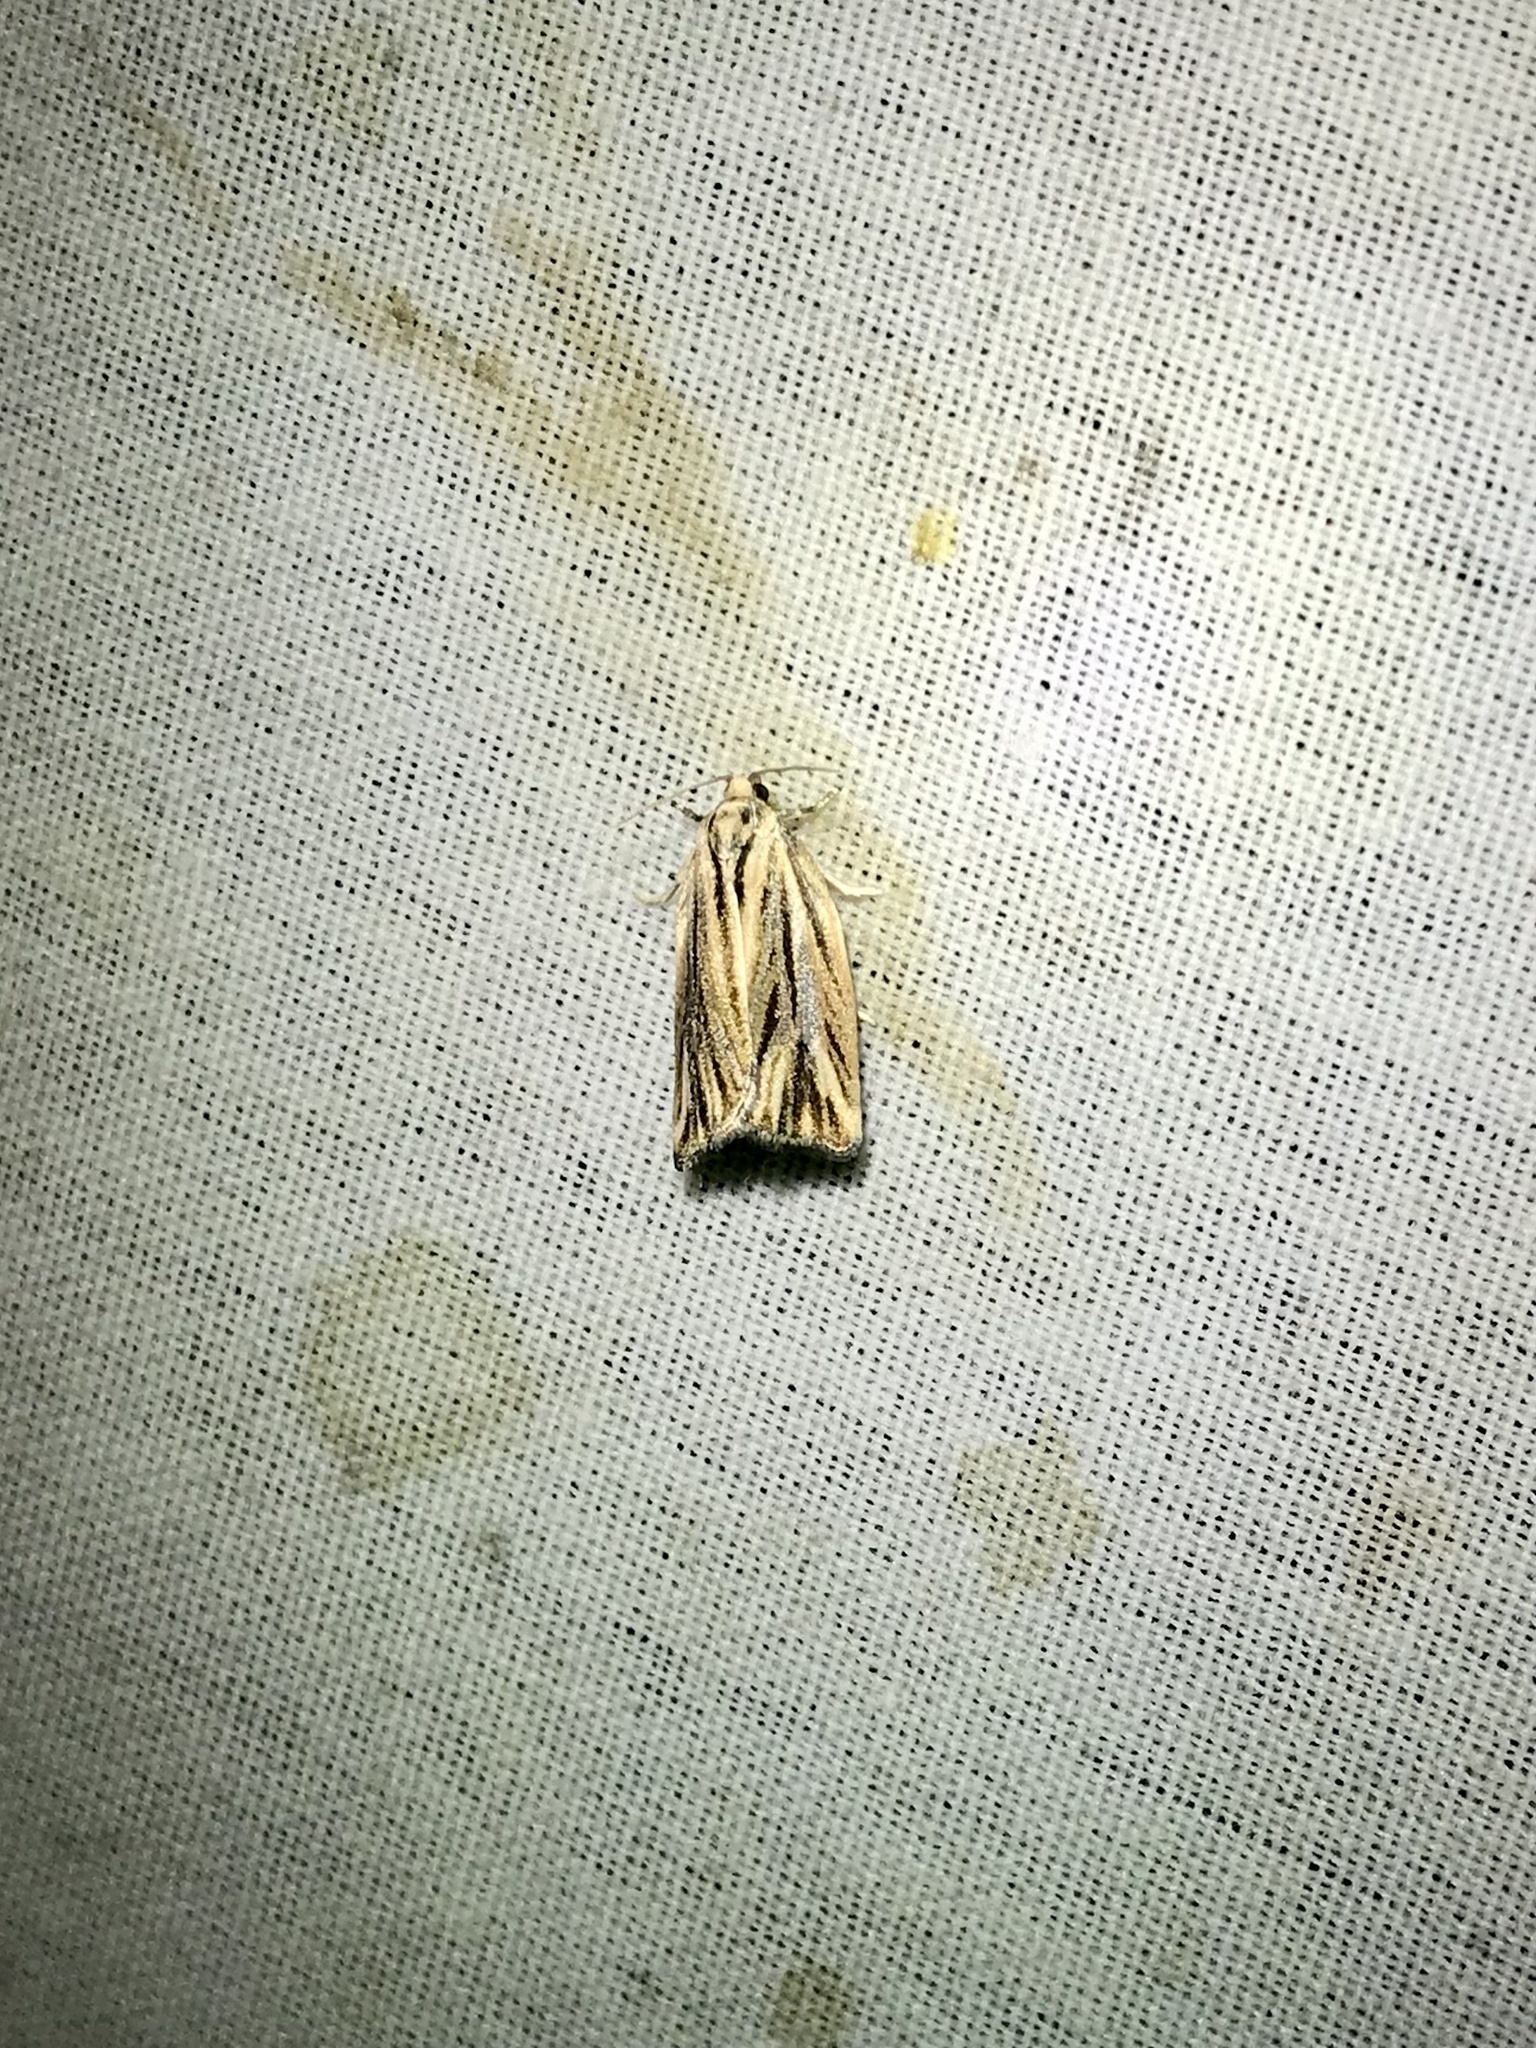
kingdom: Animalia
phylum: Arthropoda
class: Insecta
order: Lepidoptera
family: Tortricidae
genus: Archips
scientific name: Archips strianus
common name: Striated tortrix moth
